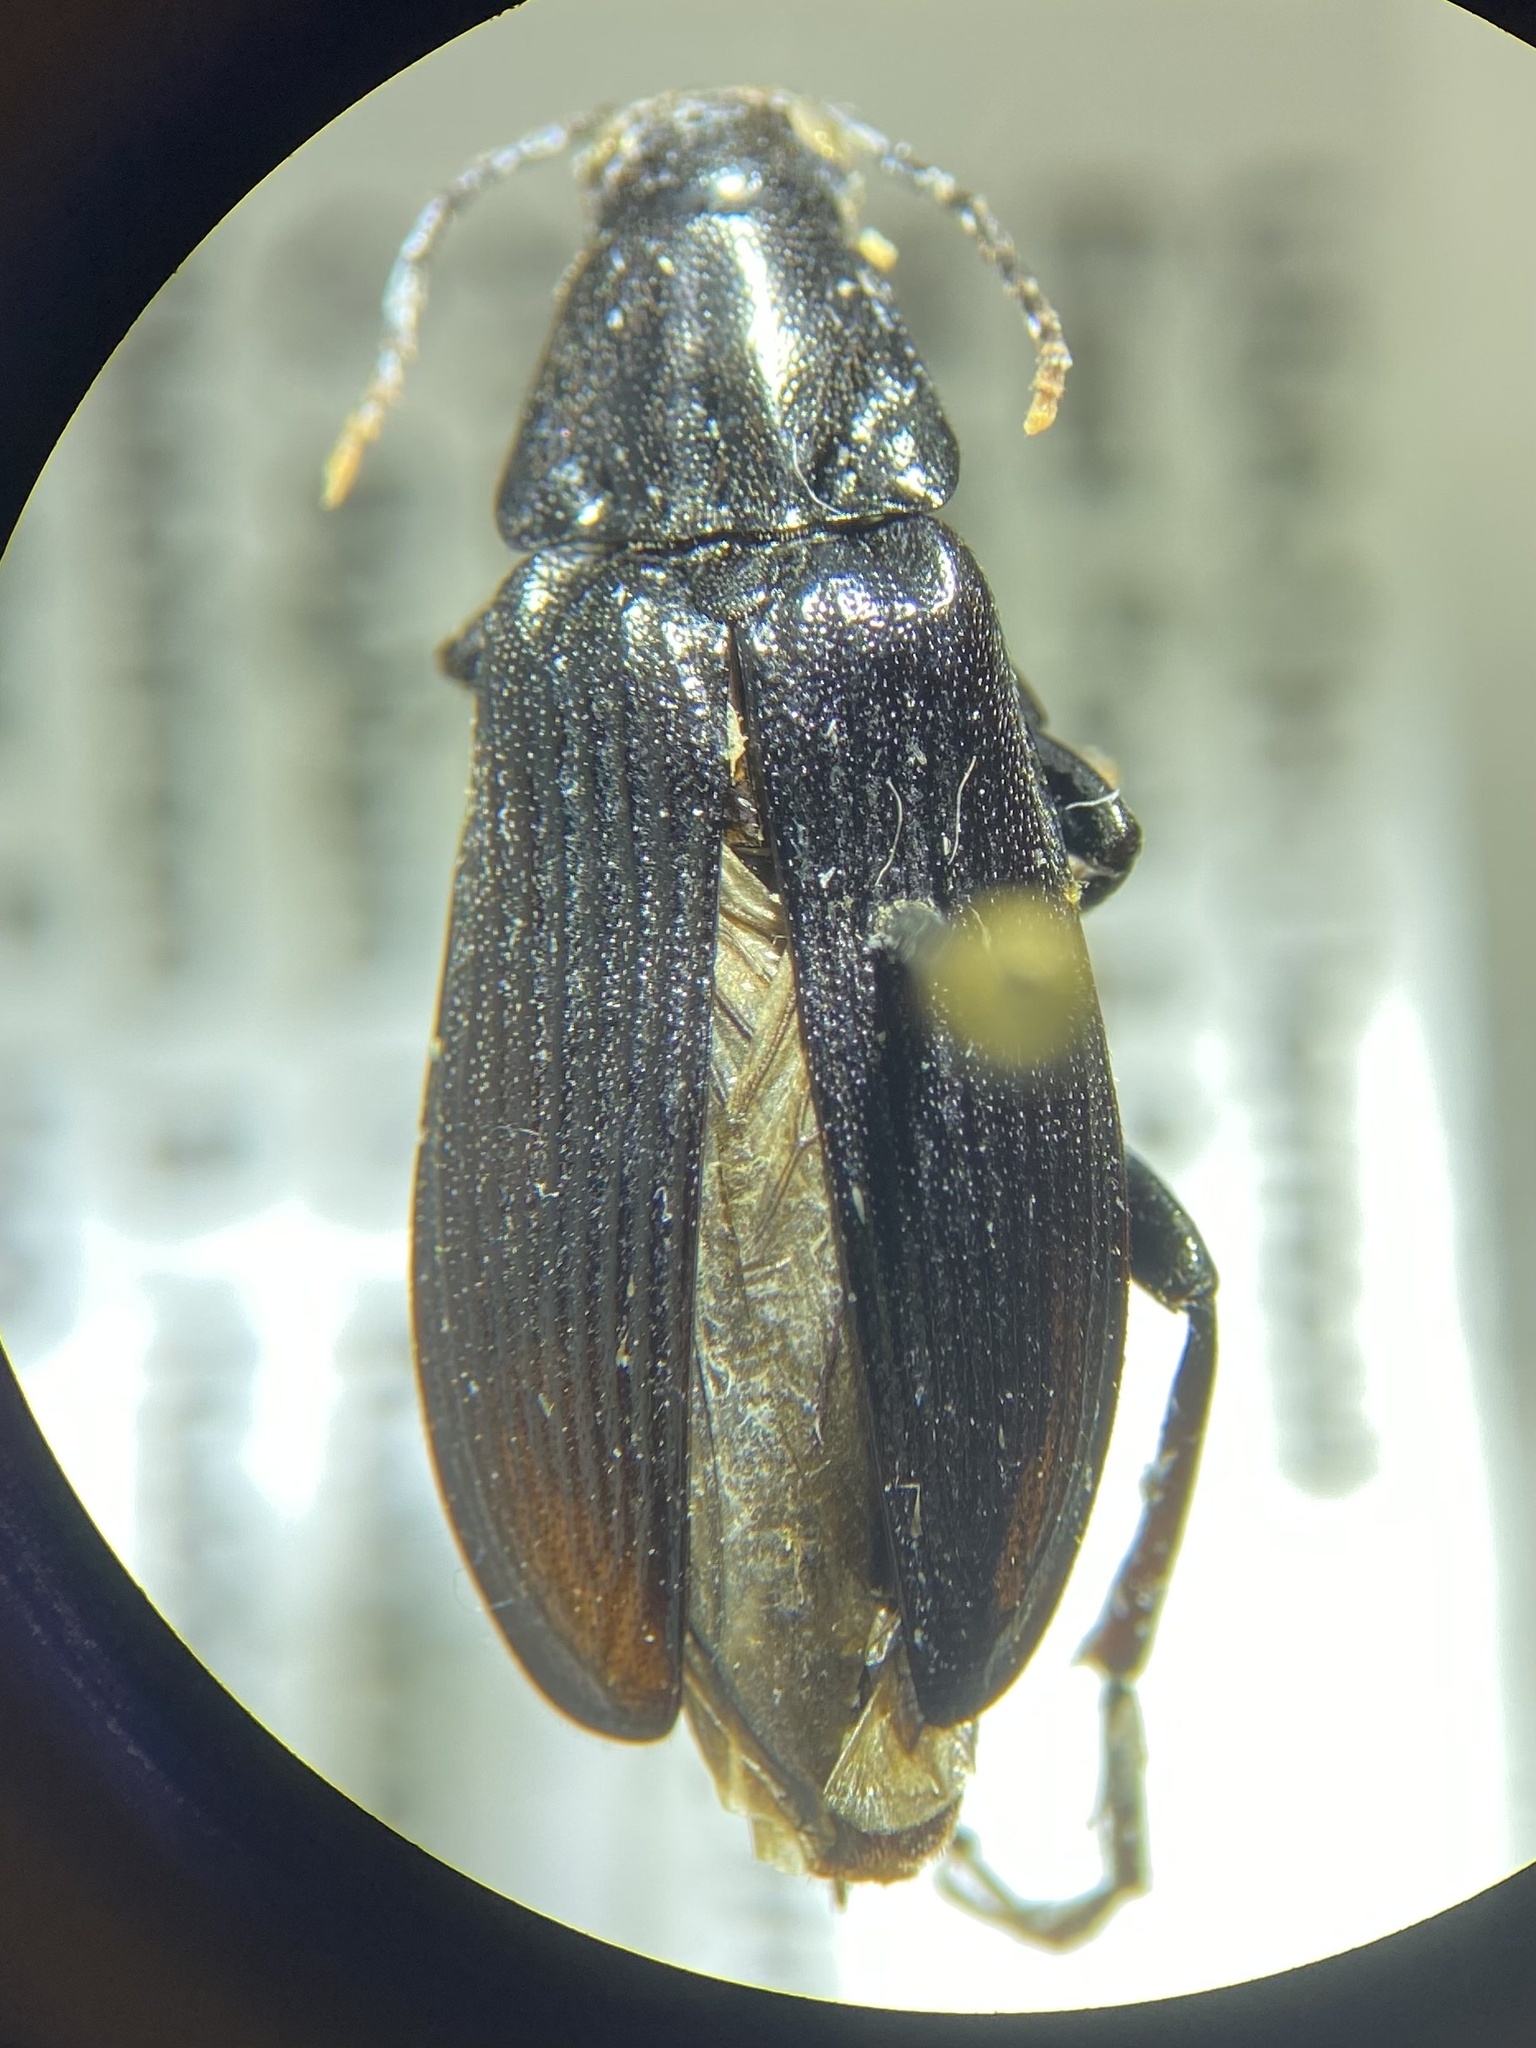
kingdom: Animalia
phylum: Arthropoda
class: Insecta
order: Coleoptera
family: Melandryidae
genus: Melandrya
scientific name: Melandrya striata
